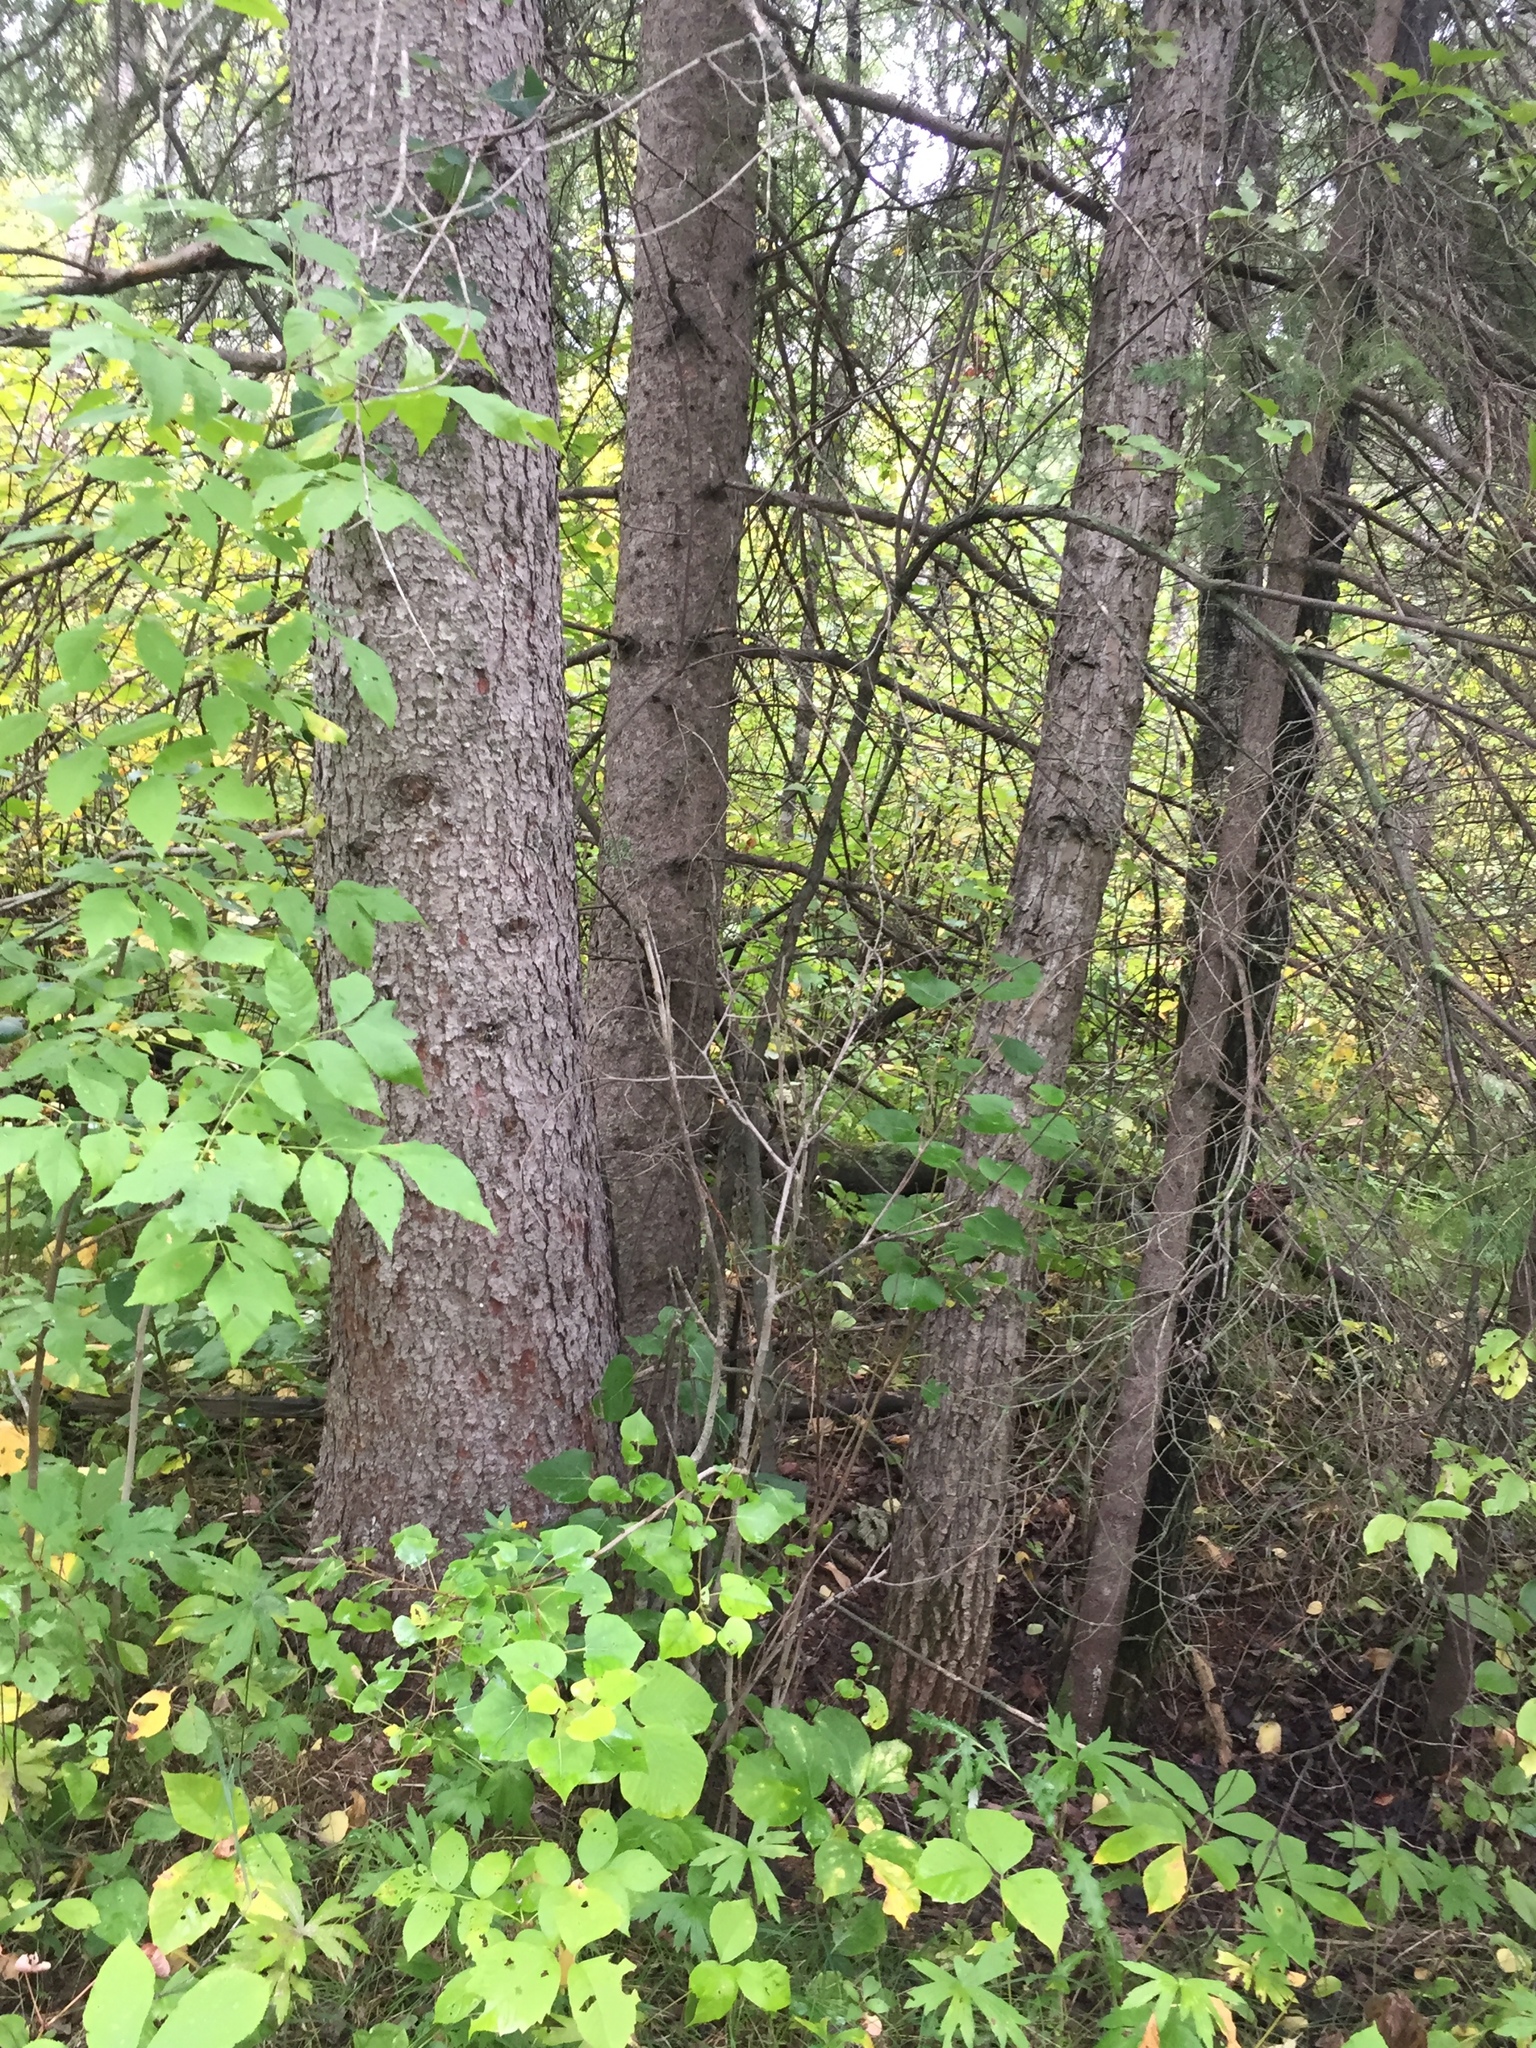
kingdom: Plantae
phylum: Tracheophyta
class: Pinopsida
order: Pinales
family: Pinaceae
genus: Picea
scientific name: Picea glauca
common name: White spruce
